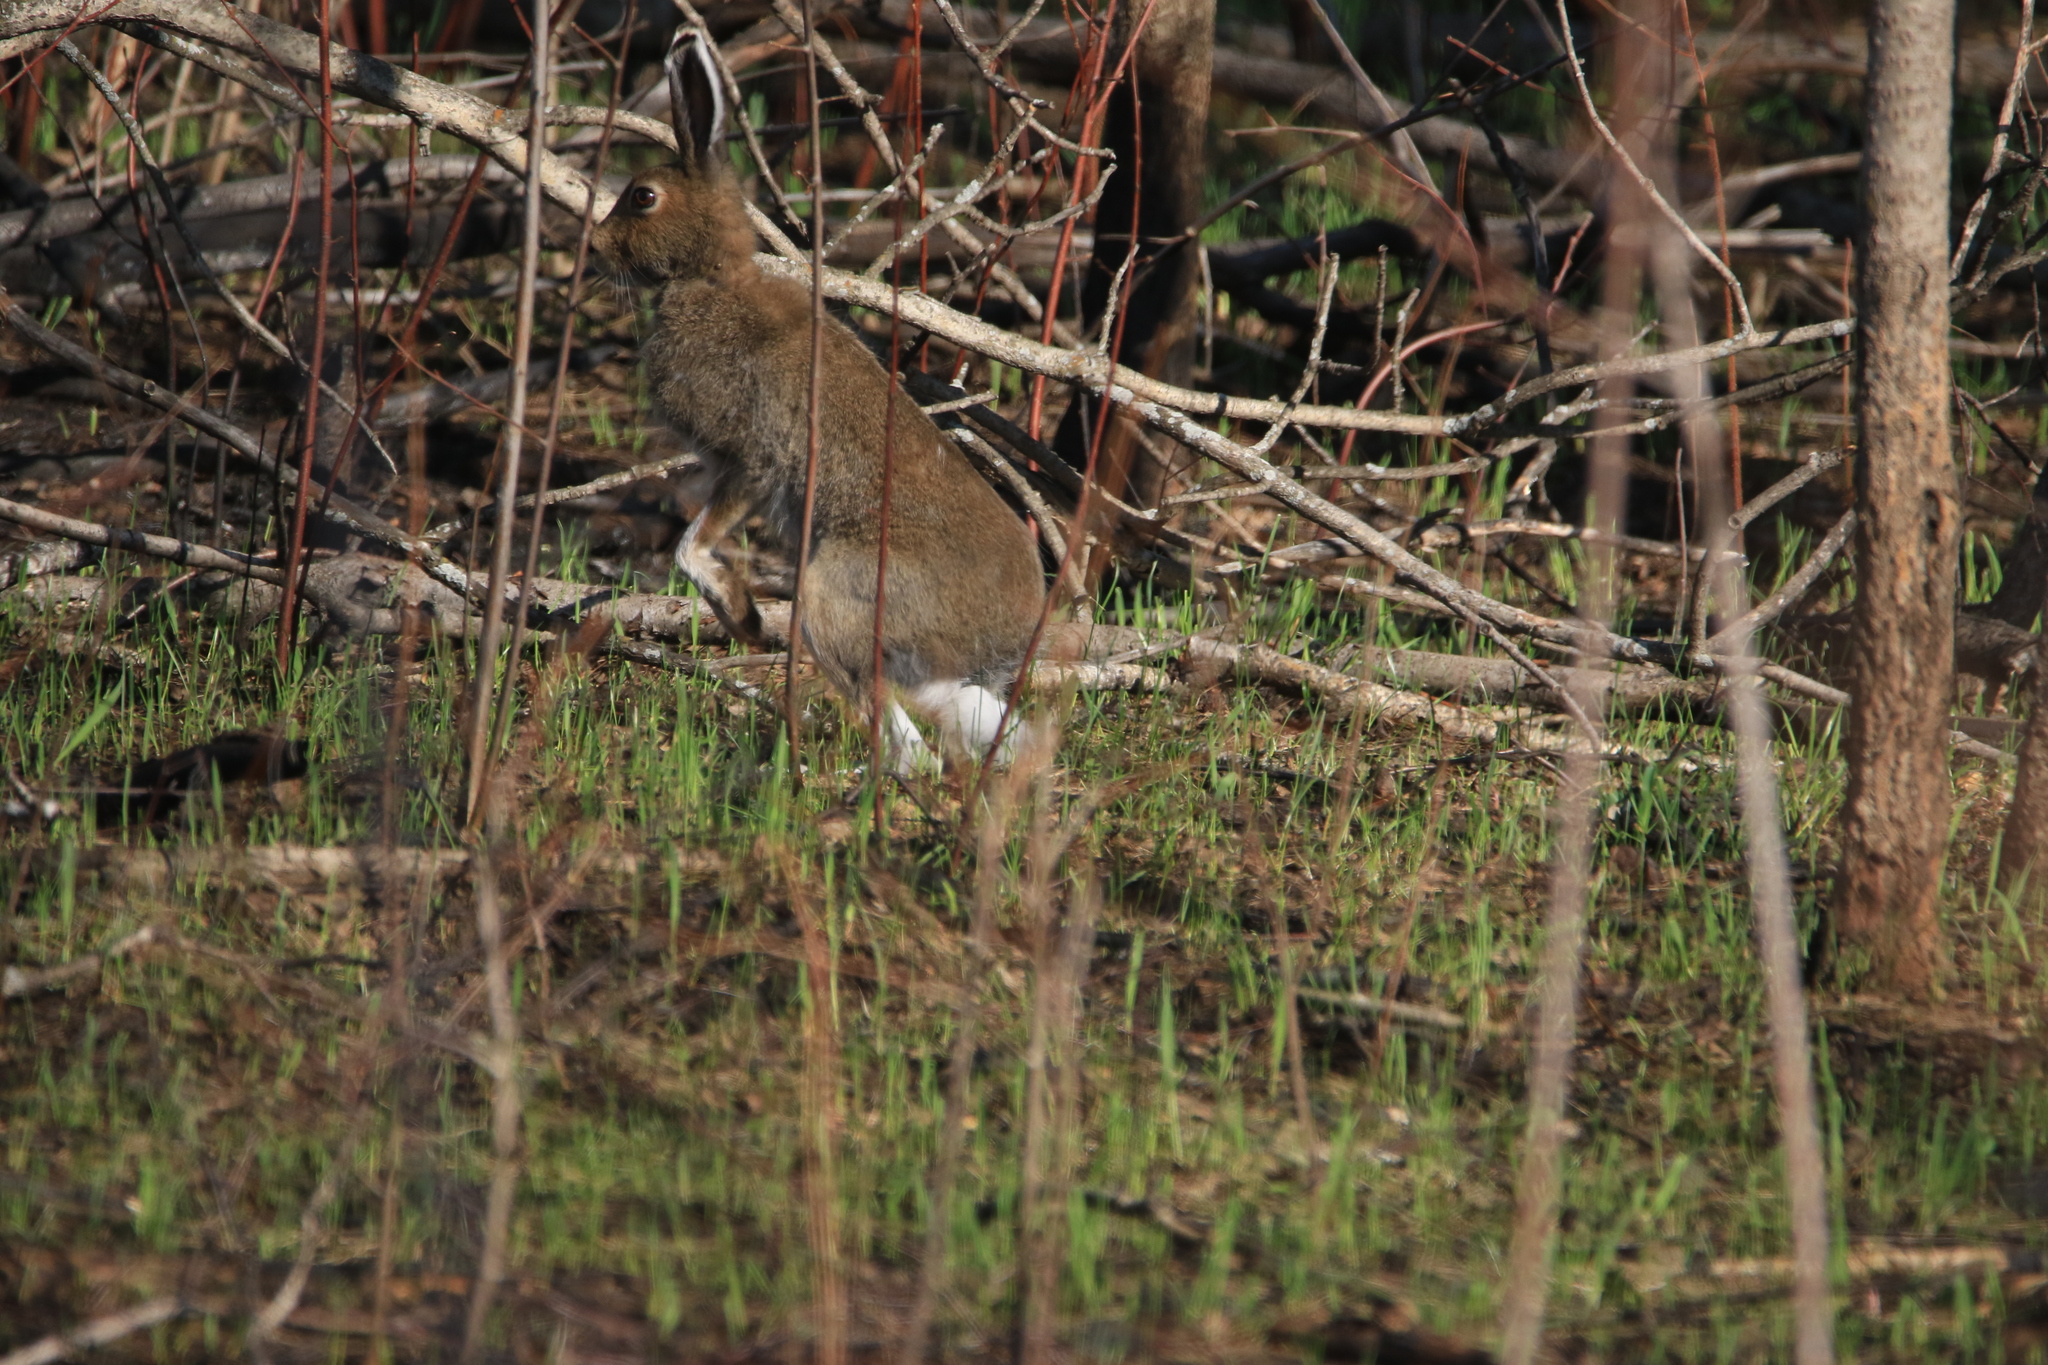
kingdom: Animalia
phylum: Chordata
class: Mammalia
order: Lagomorpha
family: Leporidae
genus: Lepus
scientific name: Lepus timidus
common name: Mountain hare
